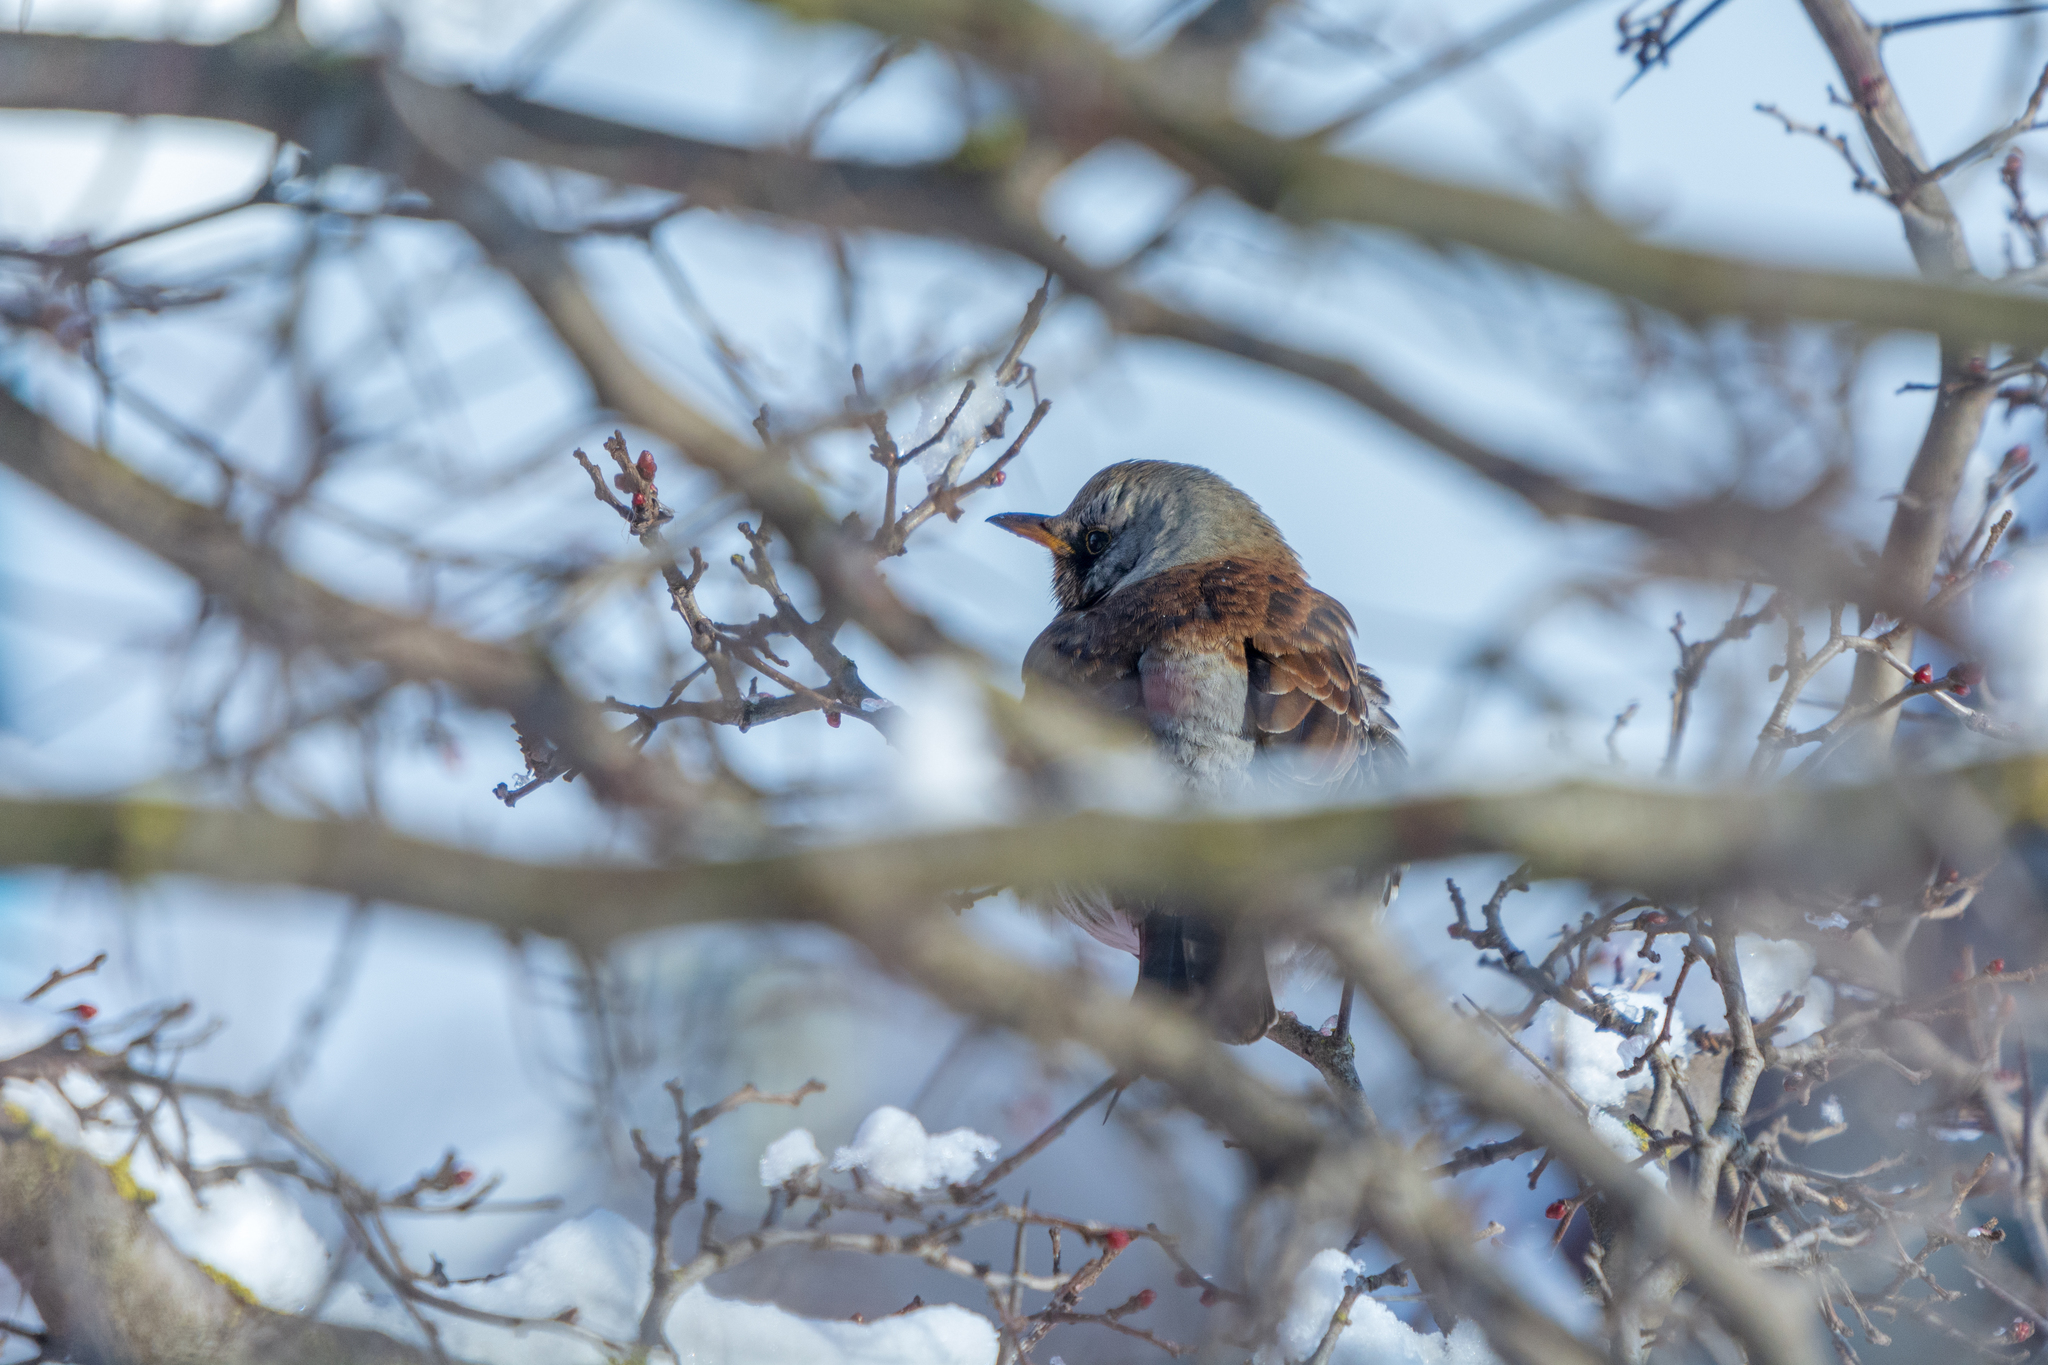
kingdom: Animalia
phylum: Chordata
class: Aves
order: Passeriformes
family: Turdidae
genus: Turdus
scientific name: Turdus pilaris
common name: Fieldfare
